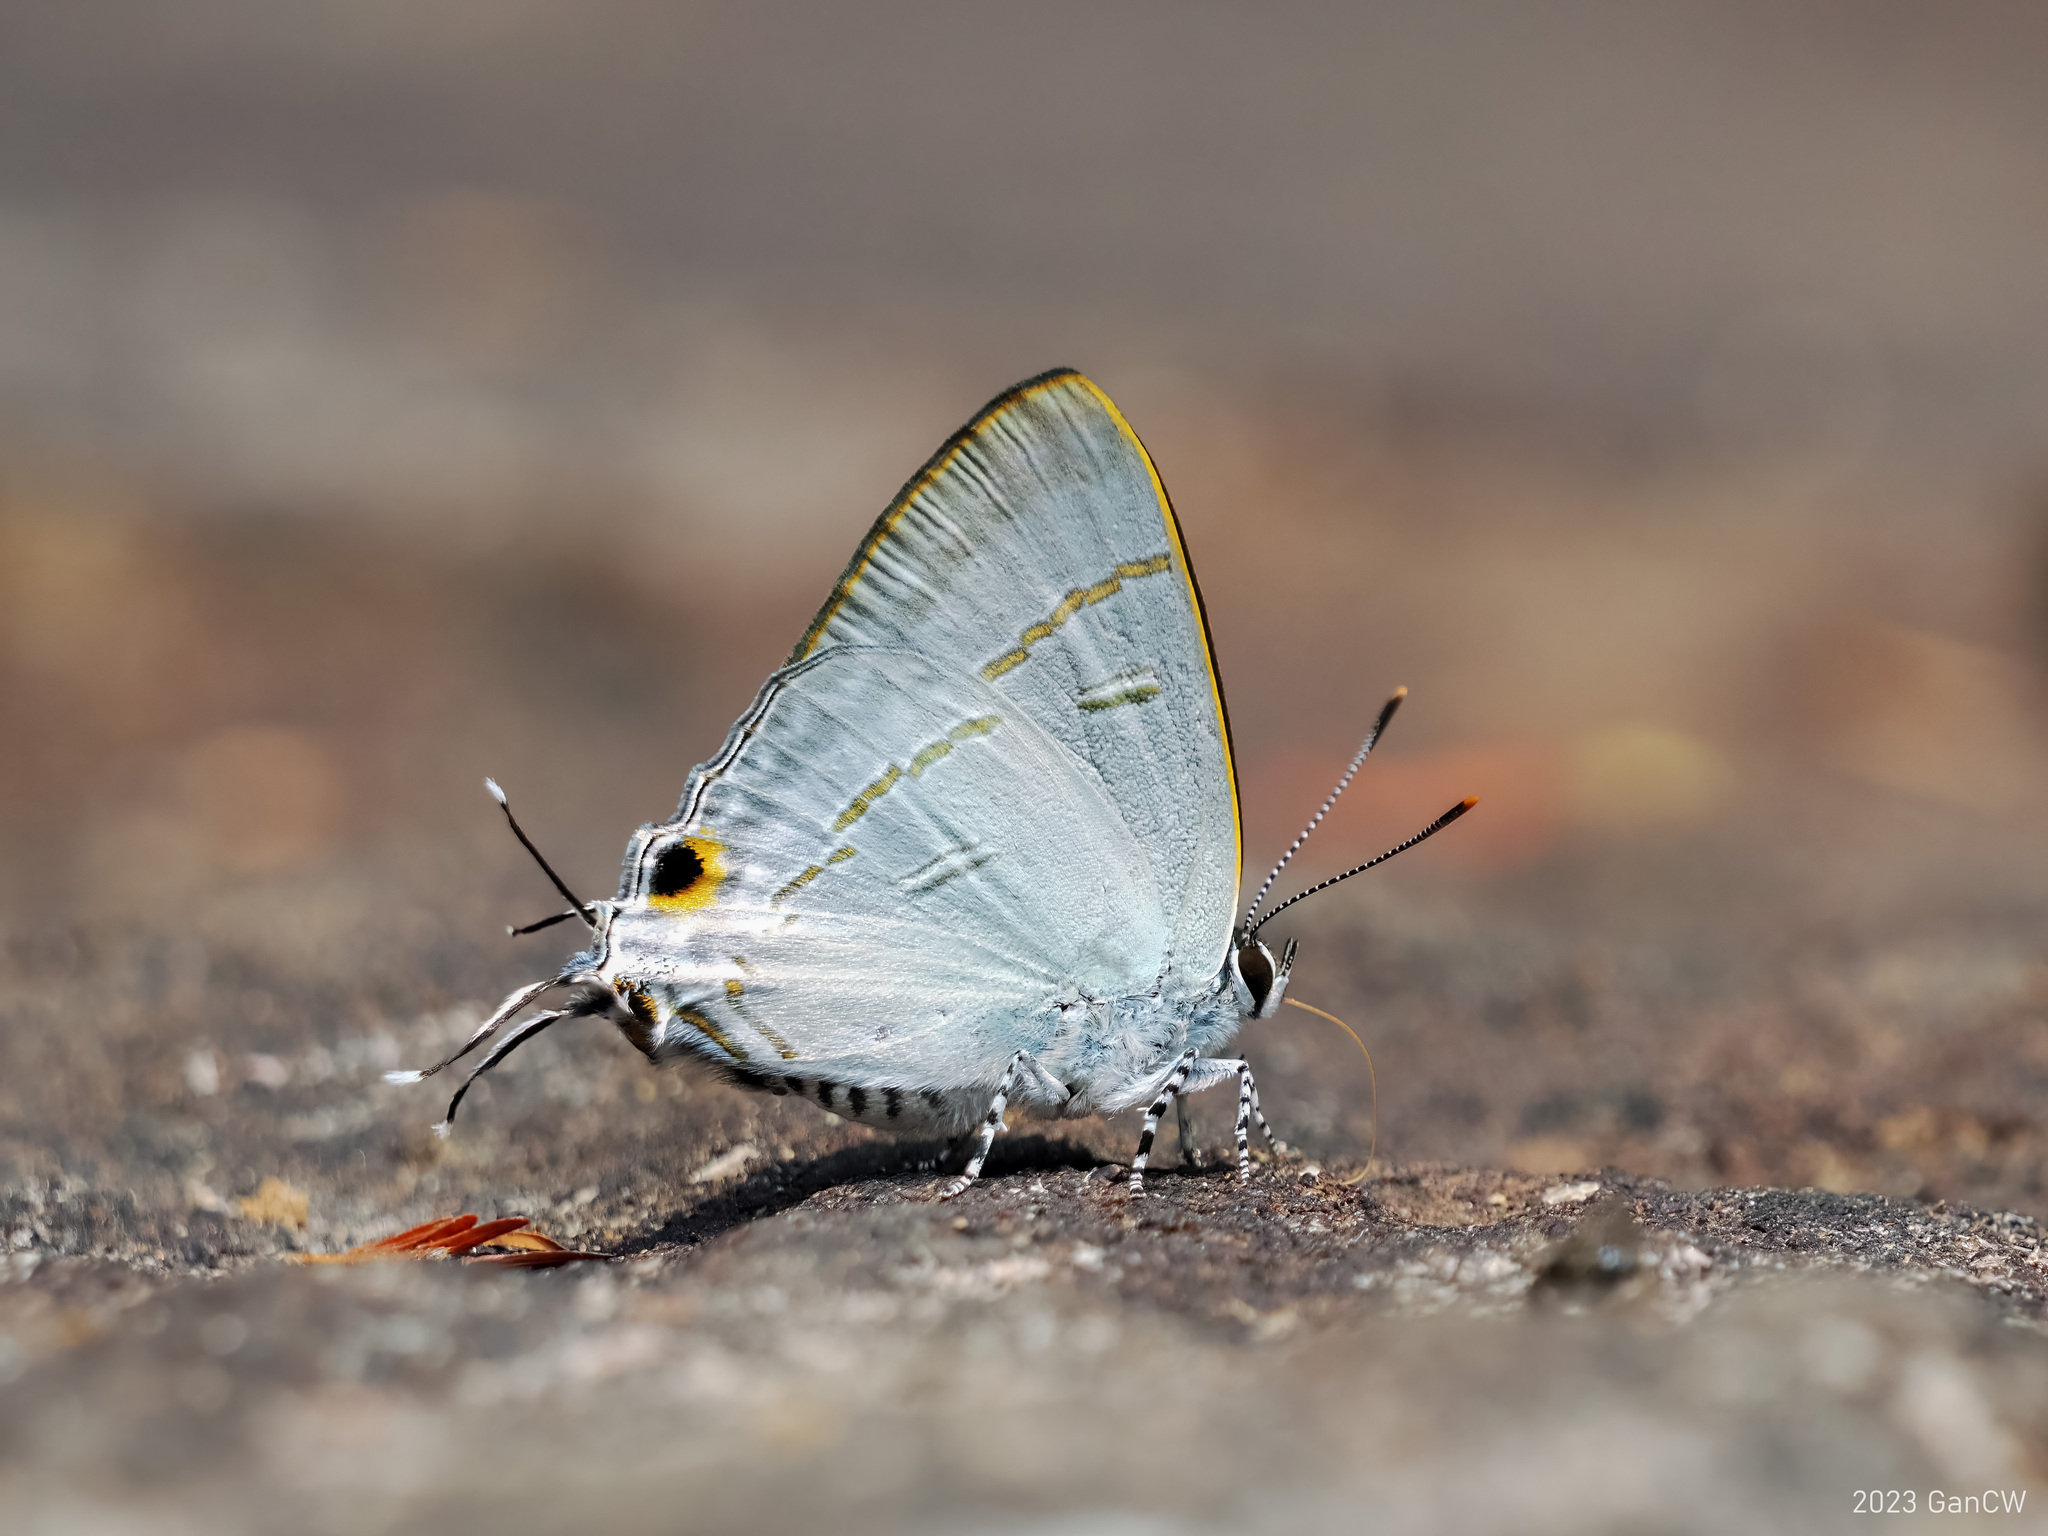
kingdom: Animalia
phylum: Arthropoda
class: Insecta
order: Lepidoptera
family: Lycaenidae
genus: Hypolycaena
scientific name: Hypolycaena erylus
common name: Common tit
